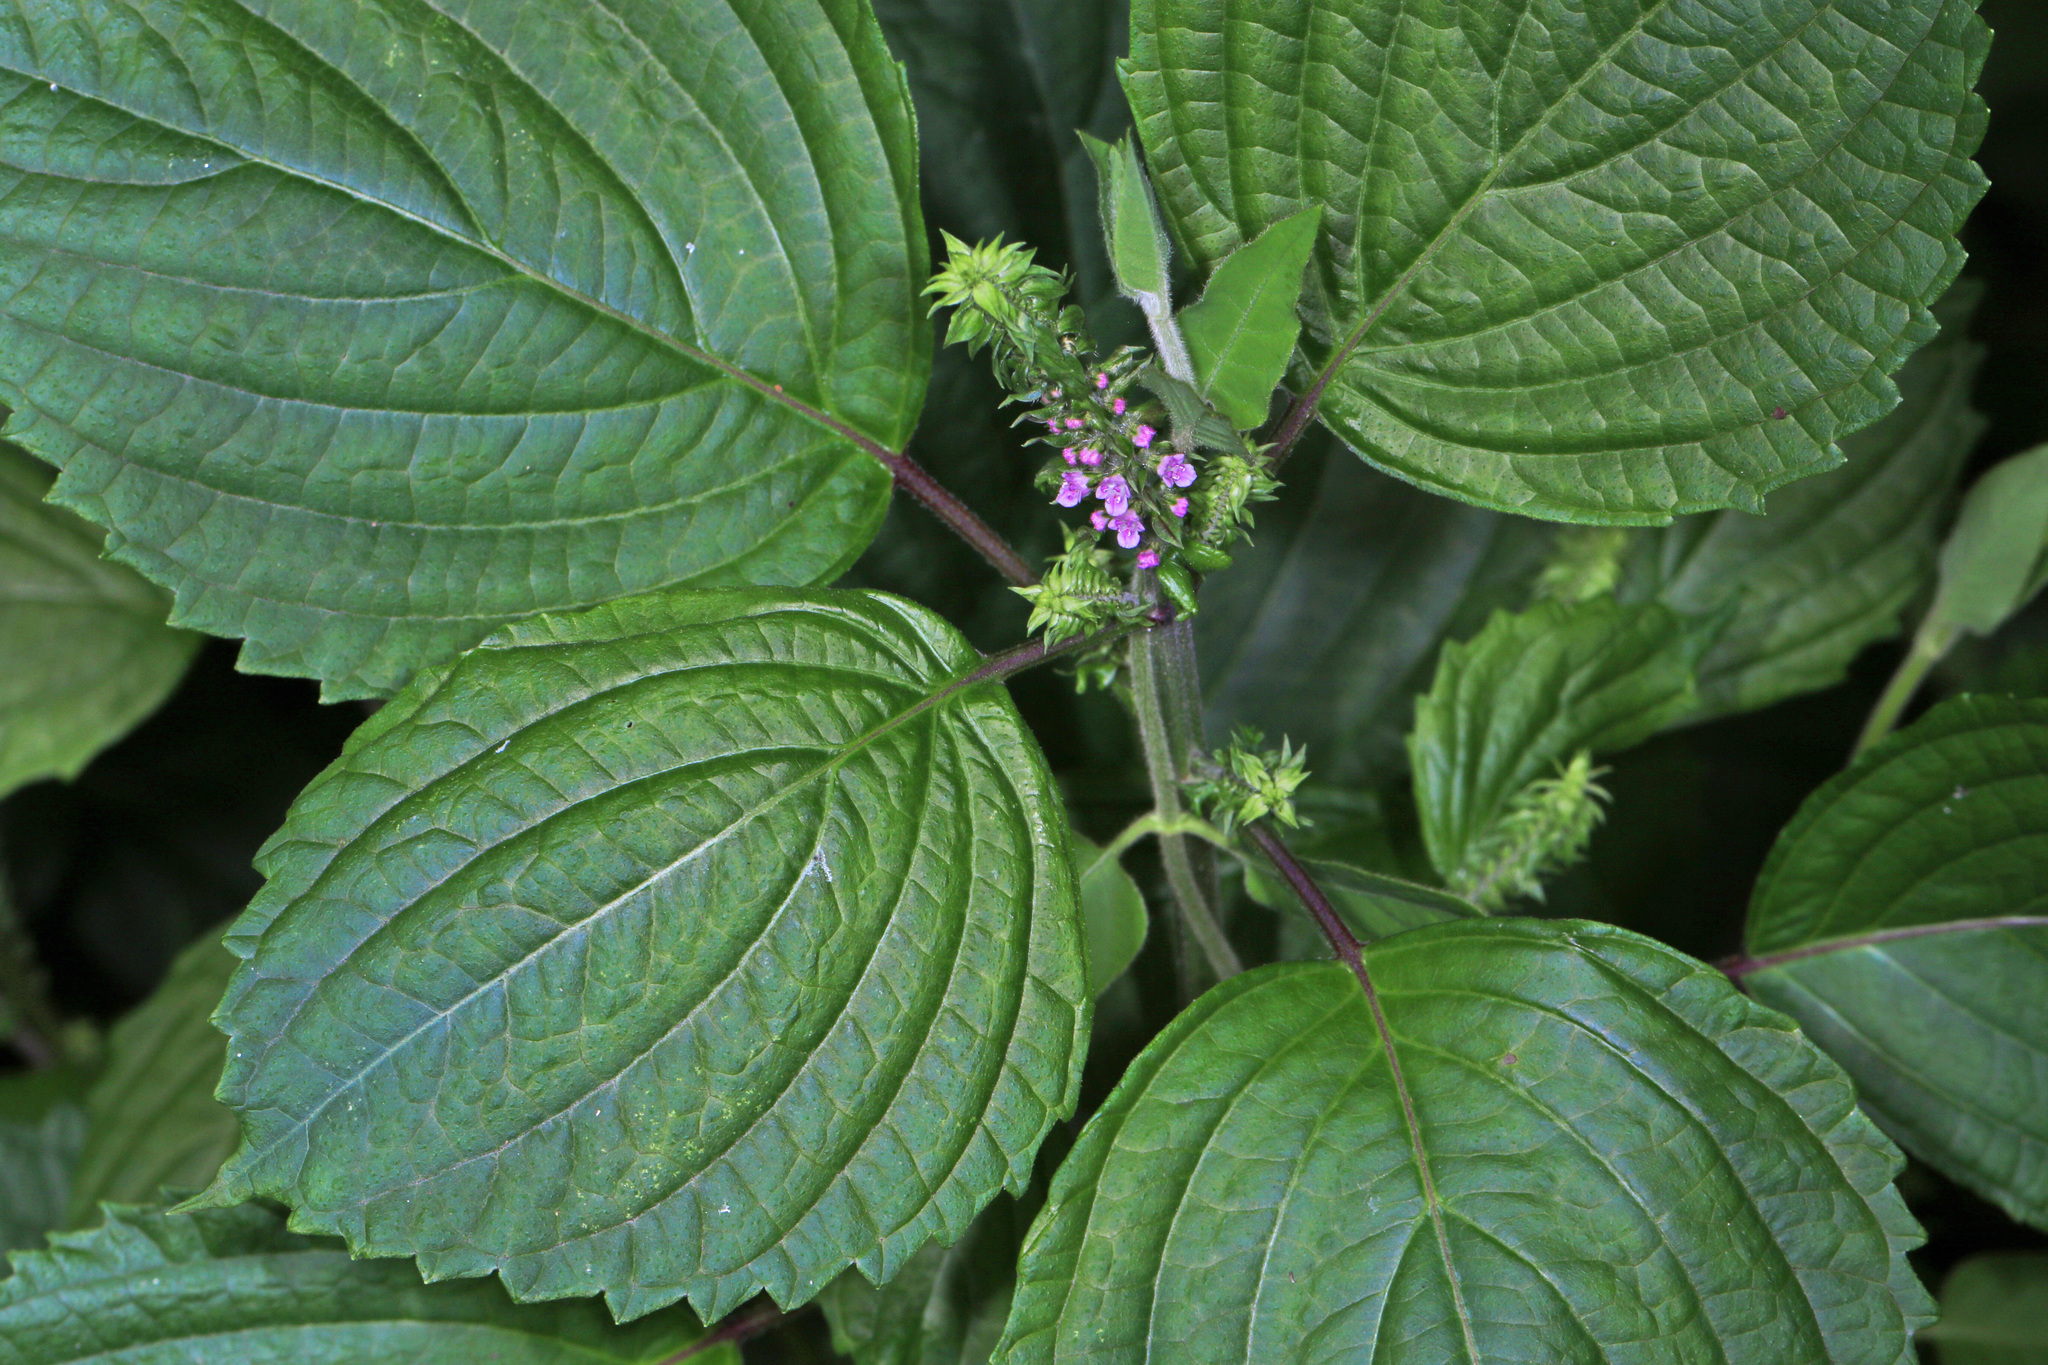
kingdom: Plantae
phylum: Tracheophyta
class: Magnoliopsida
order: Lamiales
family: Lamiaceae
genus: Perilla
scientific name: Perilla frutescens
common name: Perilla
